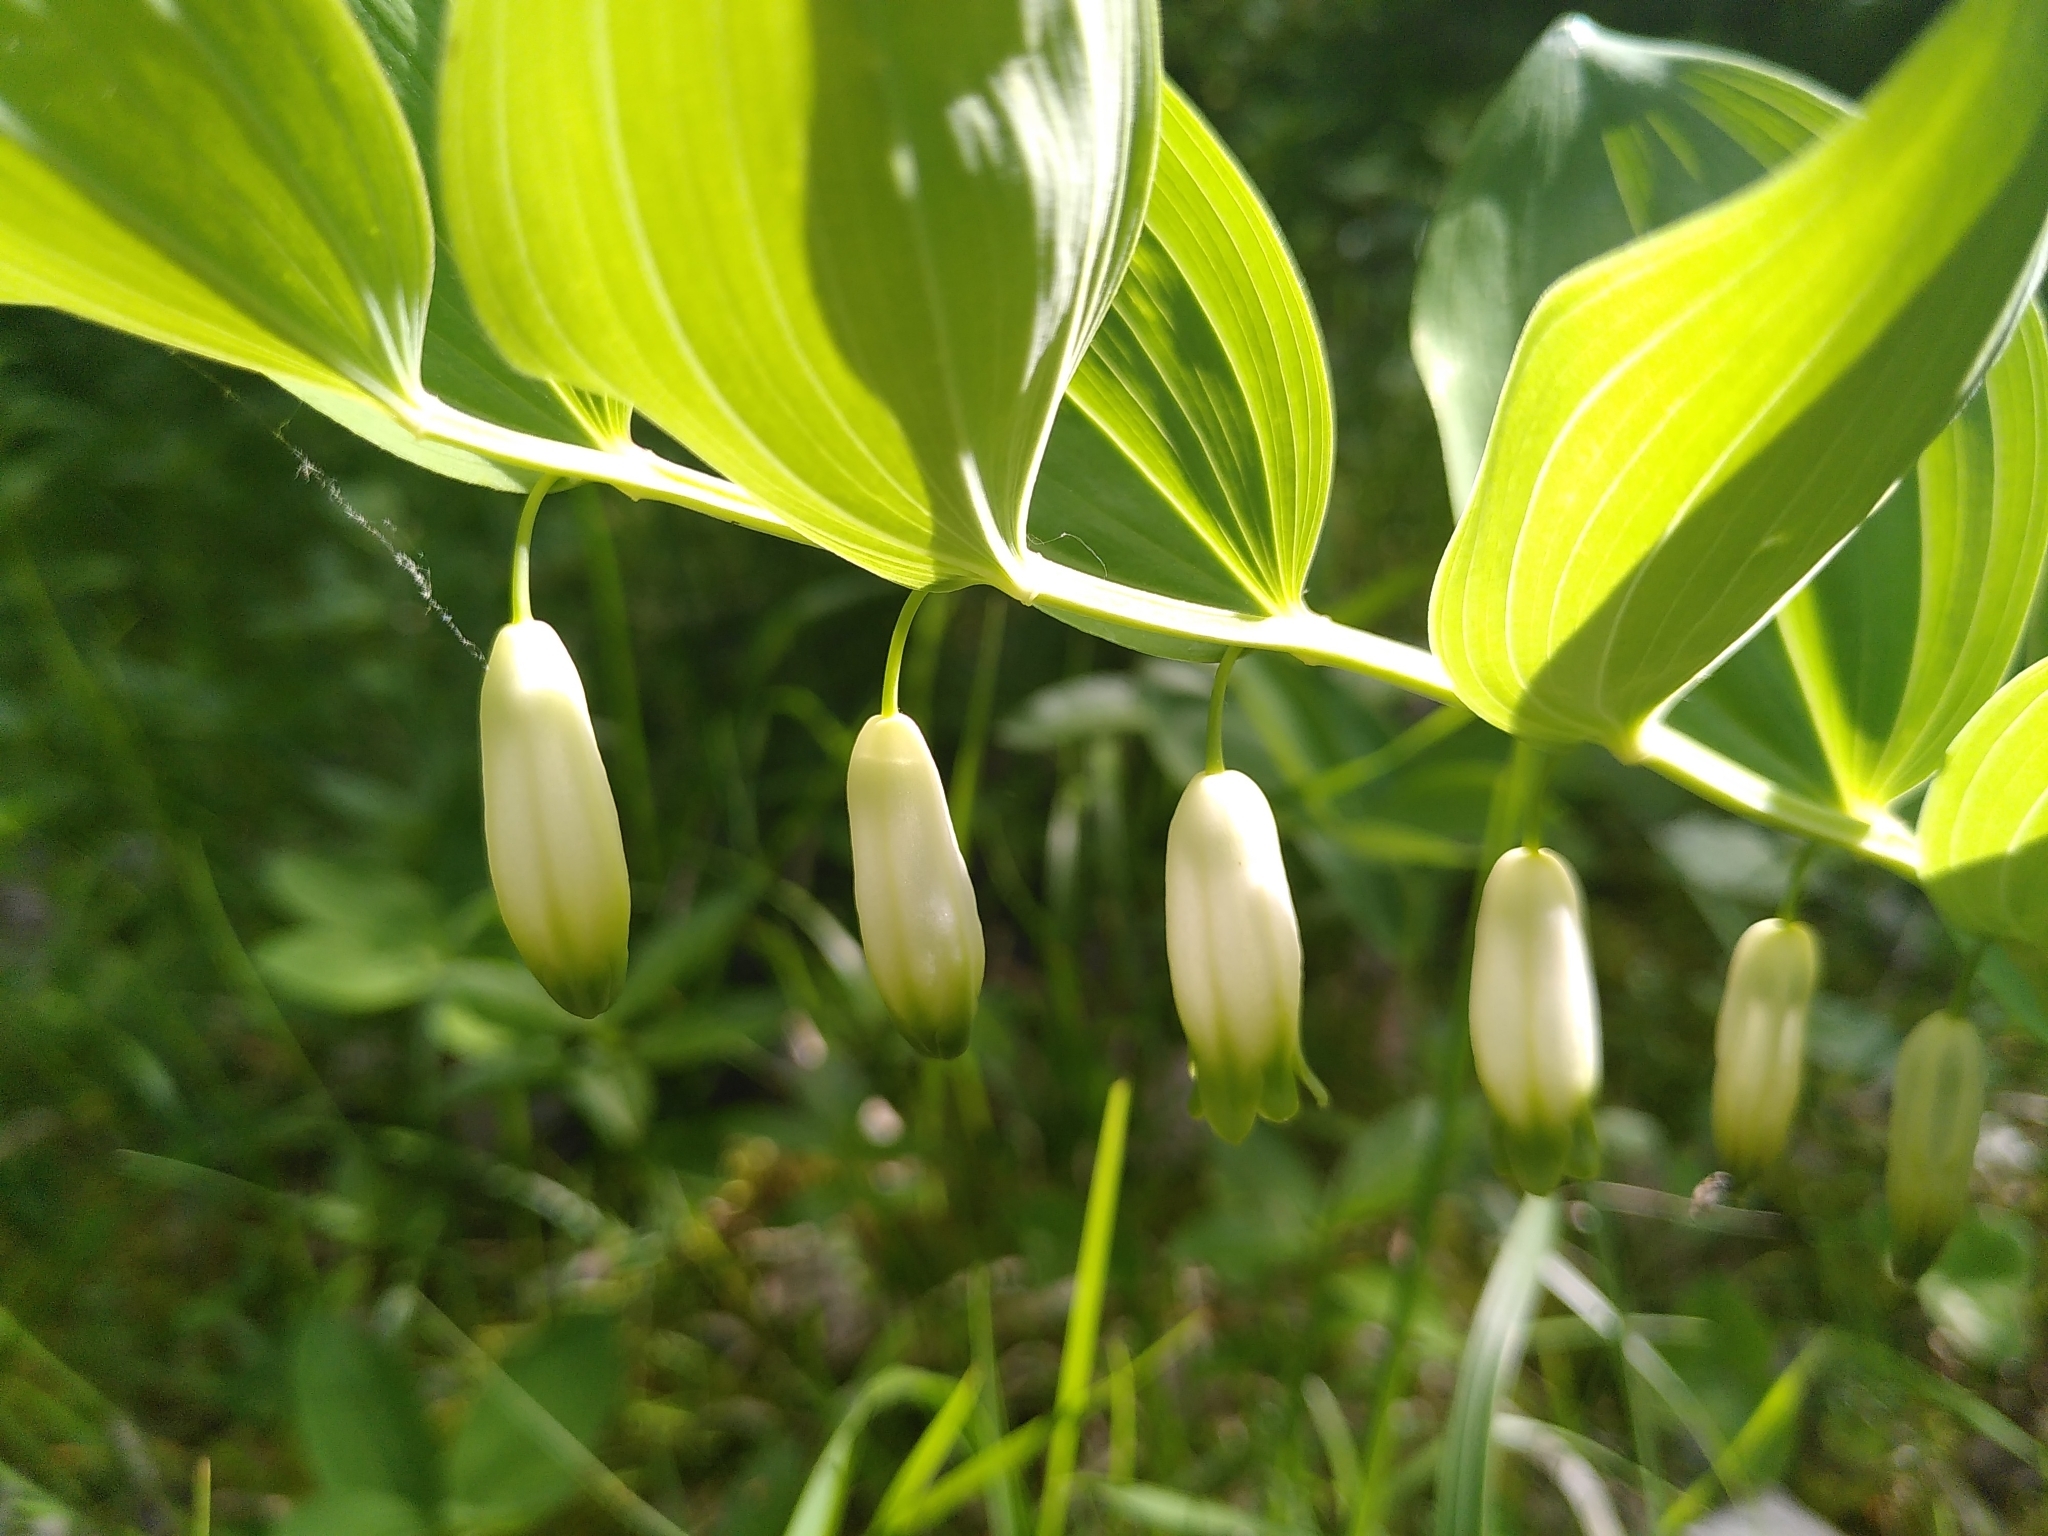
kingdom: Plantae
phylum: Tracheophyta
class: Liliopsida
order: Asparagales
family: Asparagaceae
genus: Polygonatum
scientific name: Polygonatum odoratum
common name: Angular solomon's-seal
